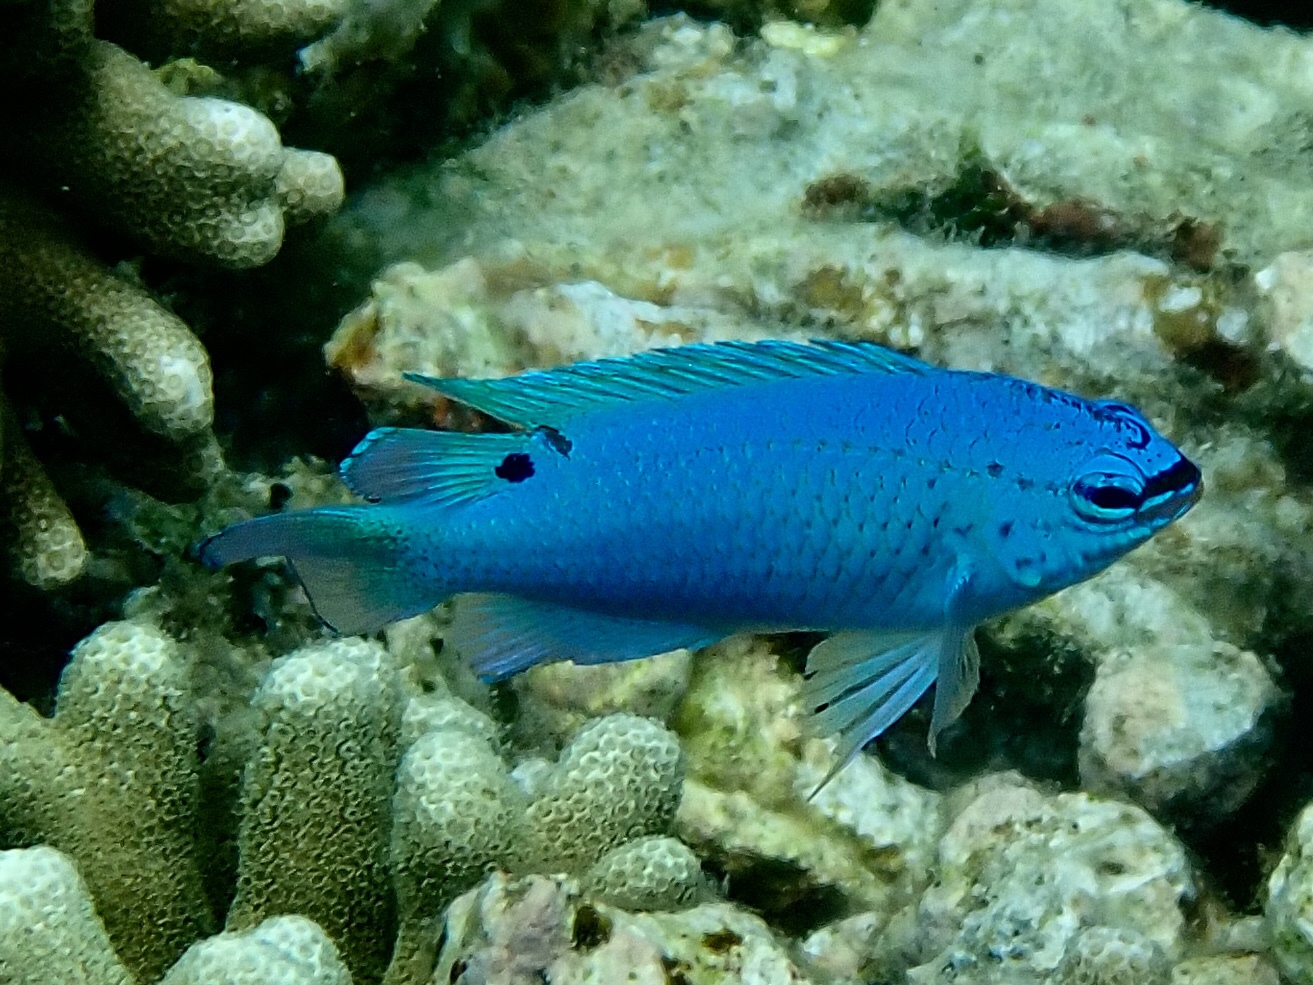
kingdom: Animalia
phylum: Chordata
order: Perciformes
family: Pomacentridae
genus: Chrysiptera
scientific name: Chrysiptera cyanea
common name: Blue devil
